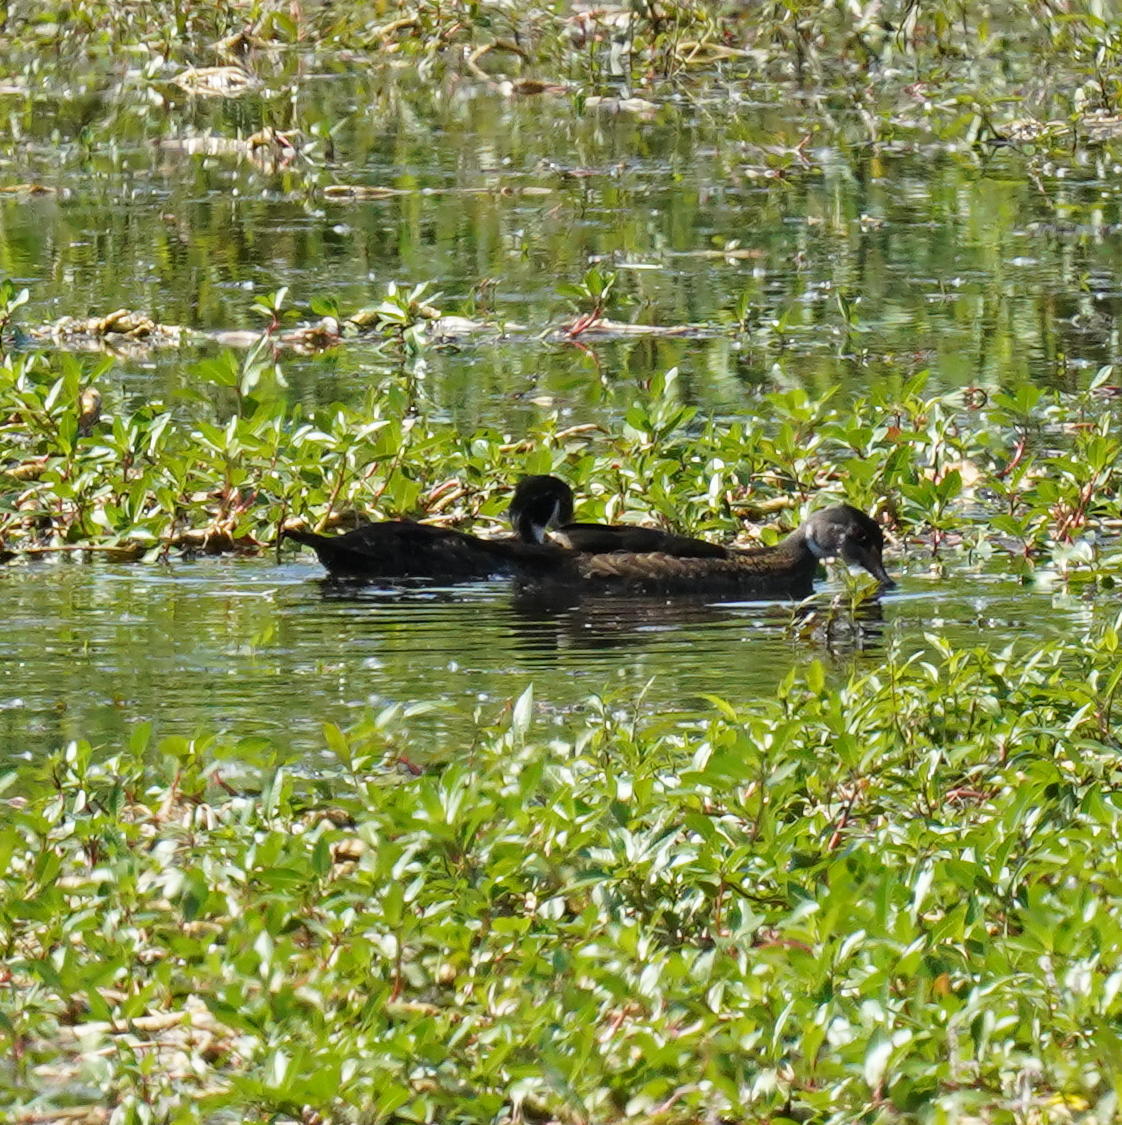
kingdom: Animalia
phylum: Chordata
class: Aves
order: Anseriformes
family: Anatidae
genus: Aix
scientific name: Aix sponsa
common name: Wood duck
